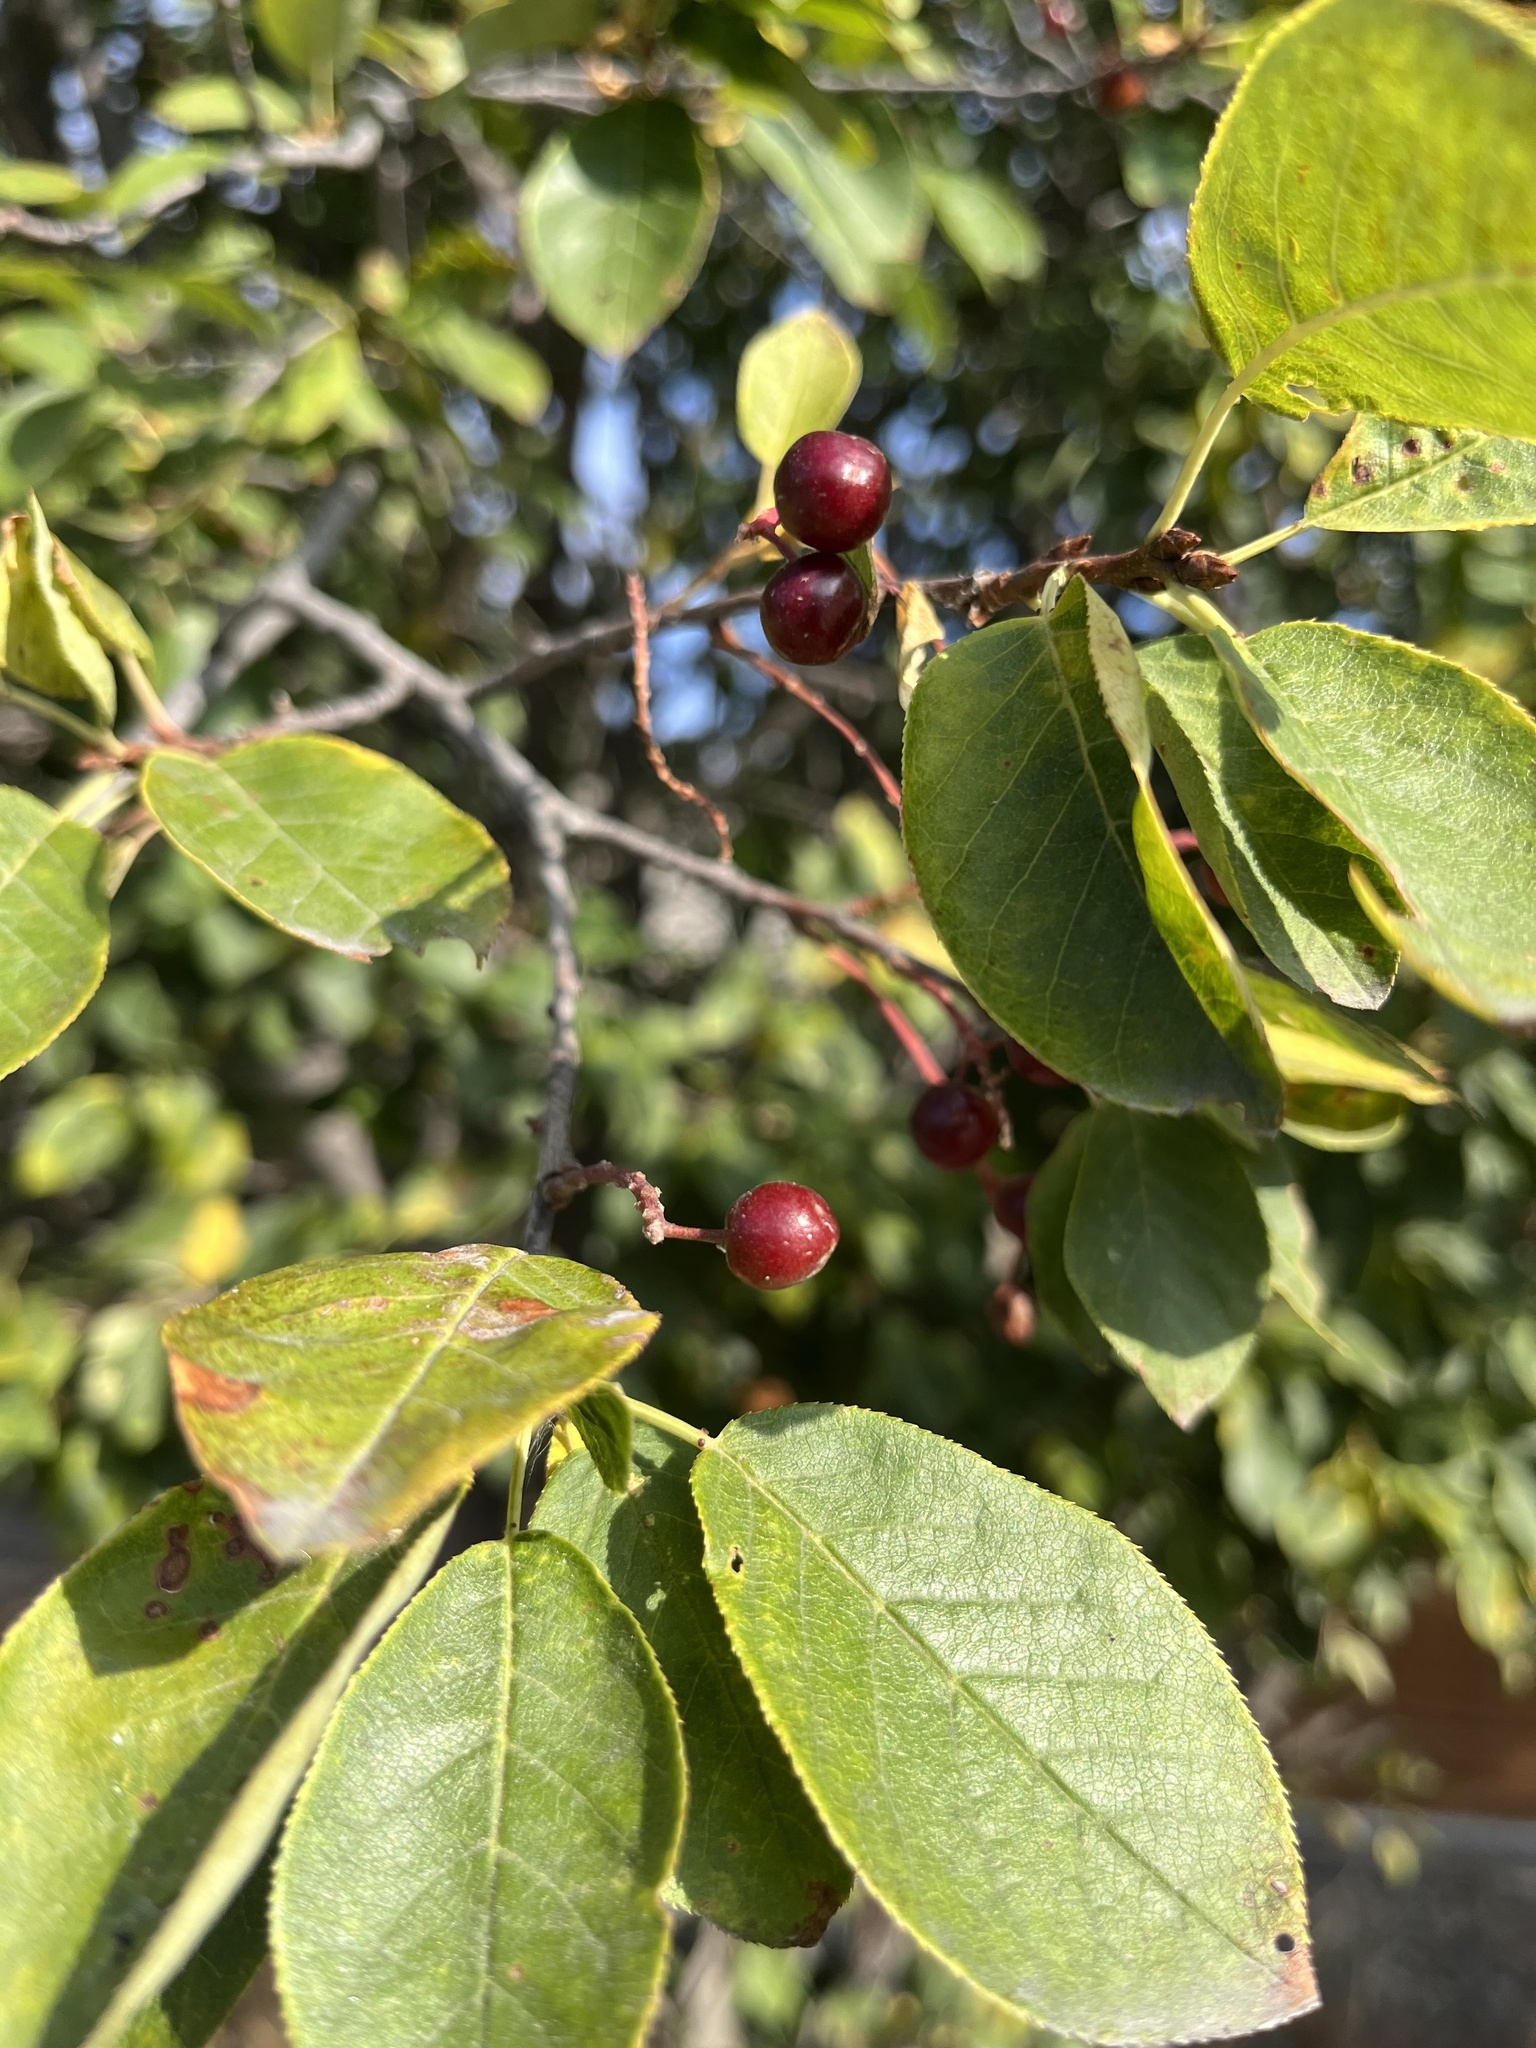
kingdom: Plantae
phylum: Tracheophyta
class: Magnoliopsida
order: Rosales
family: Rosaceae
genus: Prunus
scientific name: Prunus virginiana
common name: Chokecherry
